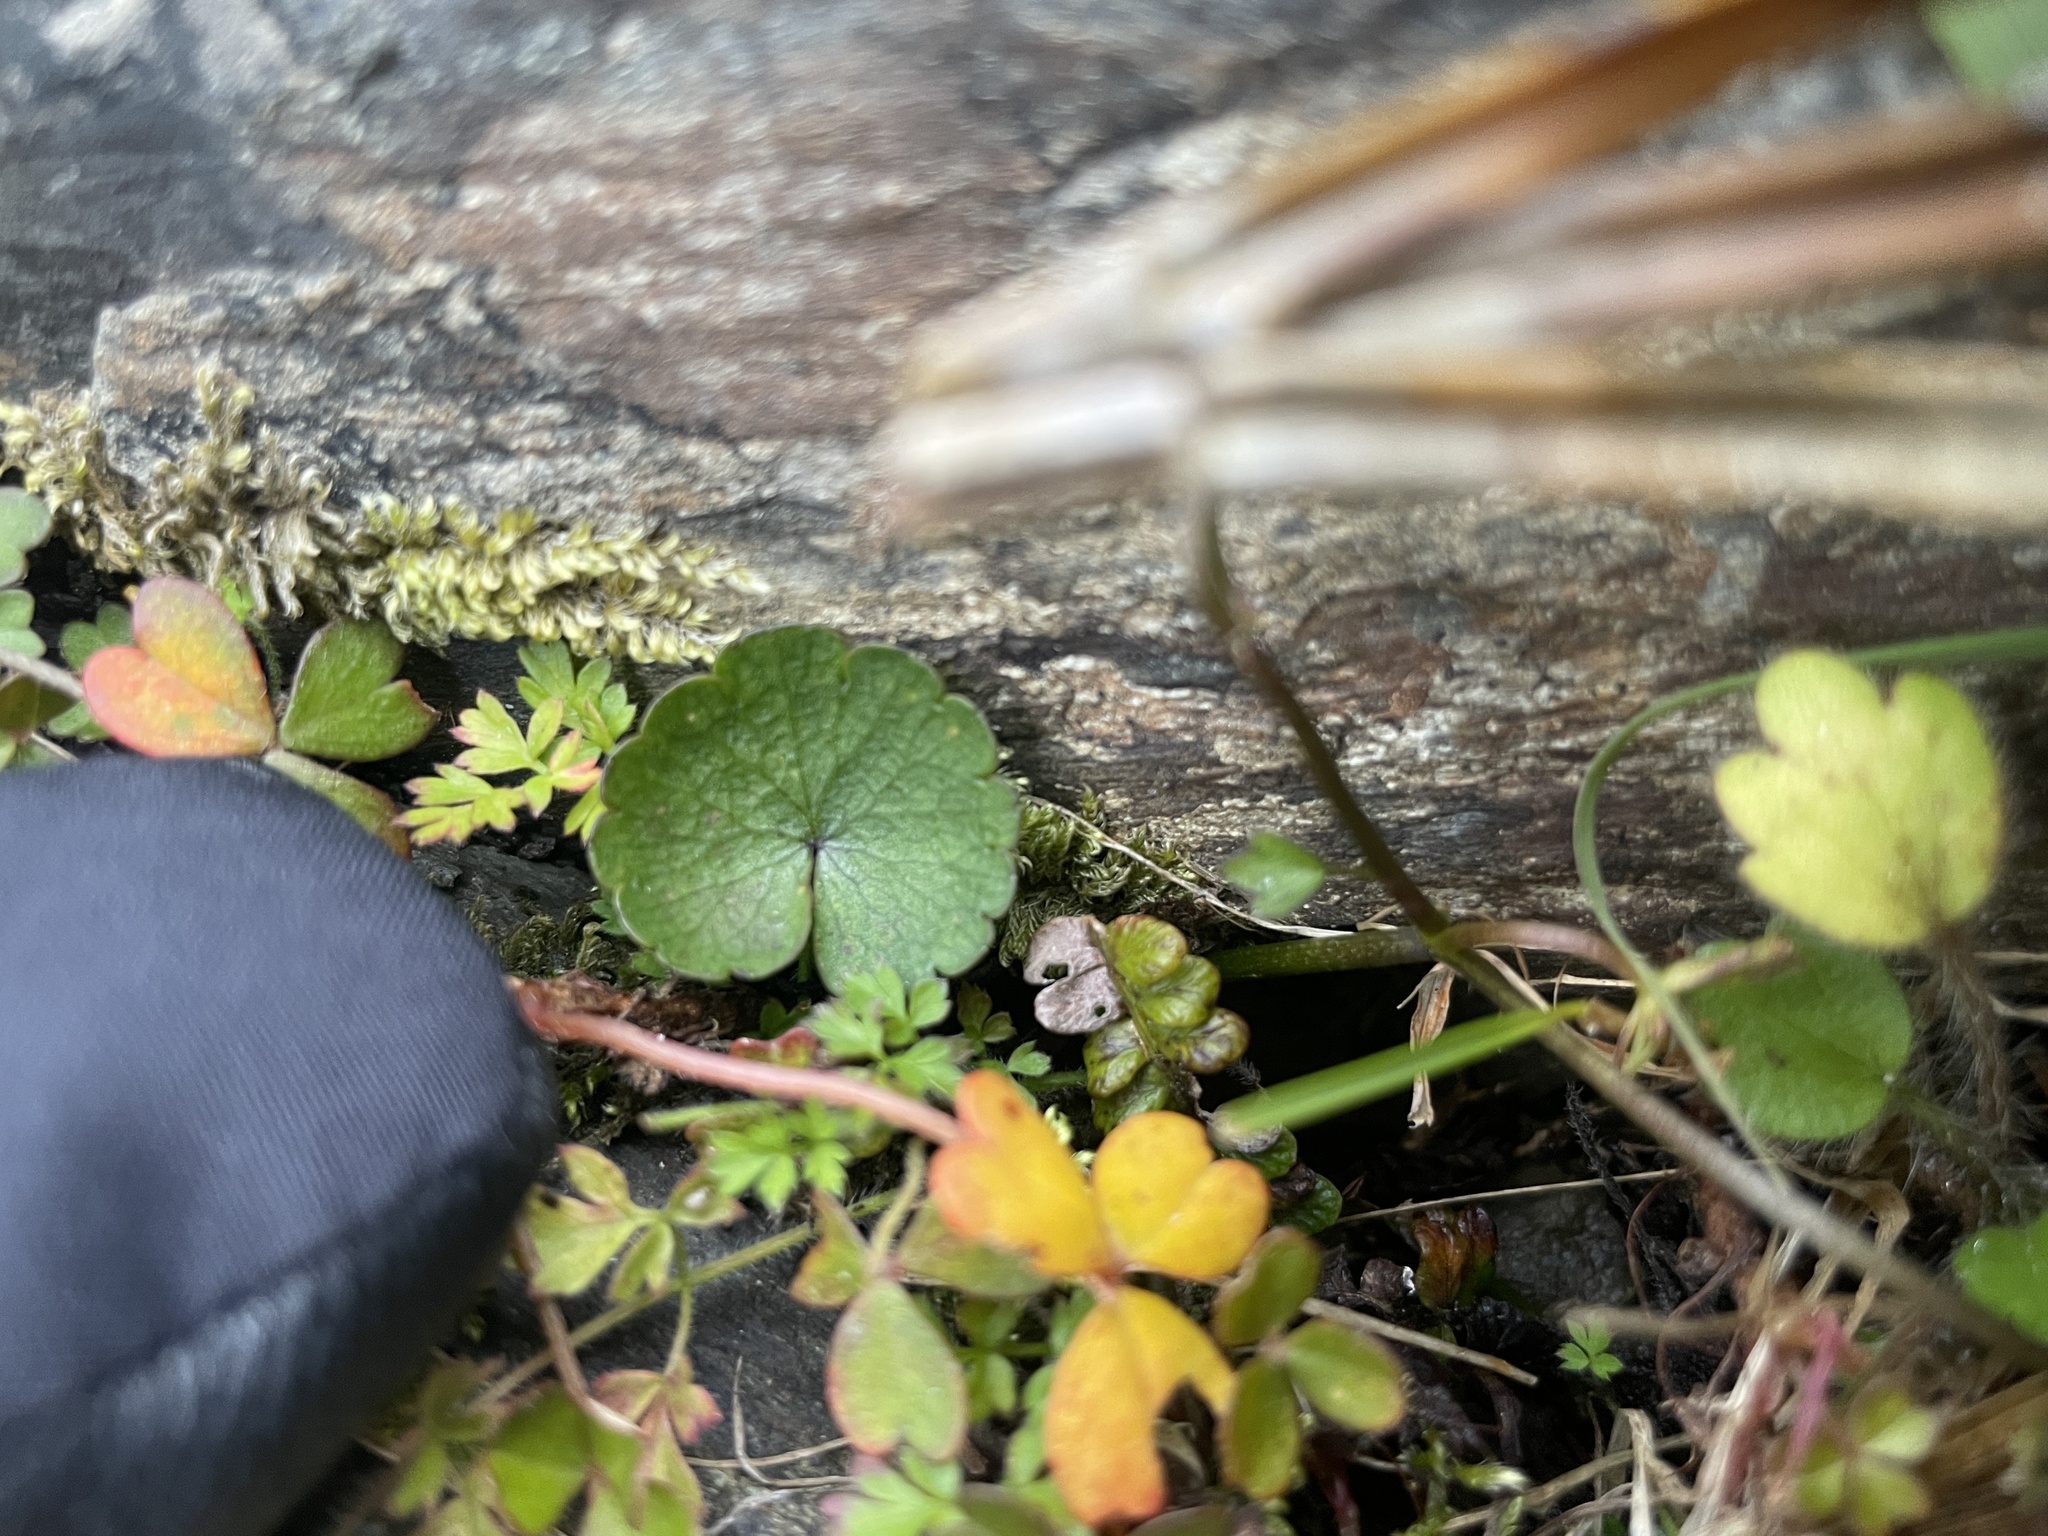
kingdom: Plantae
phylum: Tracheophyta
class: Magnoliopsida
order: Apiales
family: Apiaceae
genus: Azorella
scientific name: Azorella haastii
